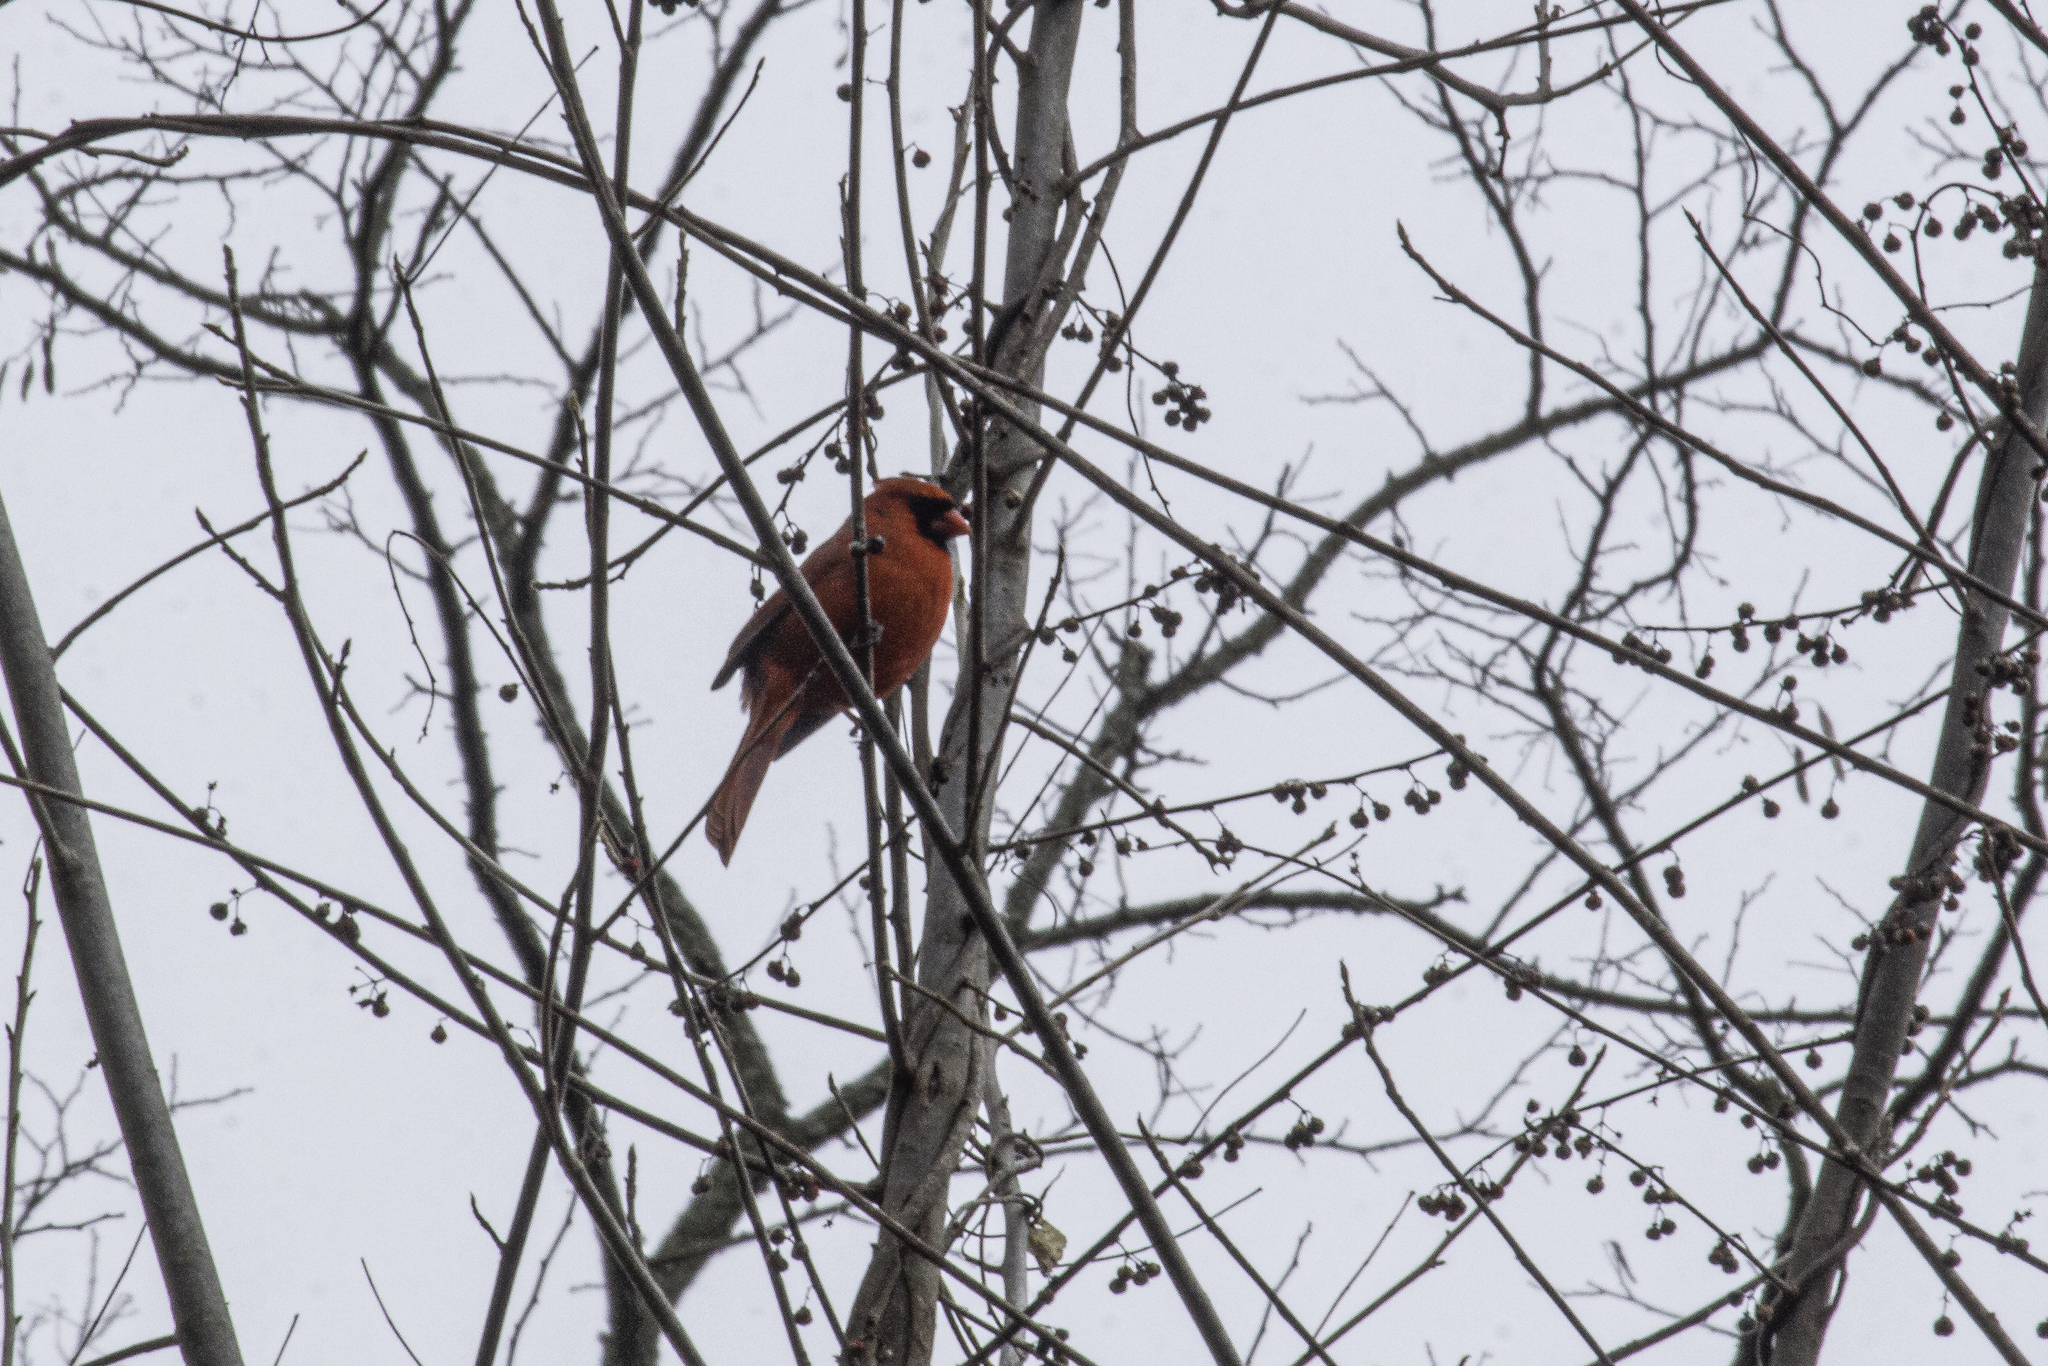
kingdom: Animalia
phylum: Chordata
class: Aves
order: Passeriformes
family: Cardinalidae
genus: Cardinalis
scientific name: Cardinalis cardinalis
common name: Northern cardinal
